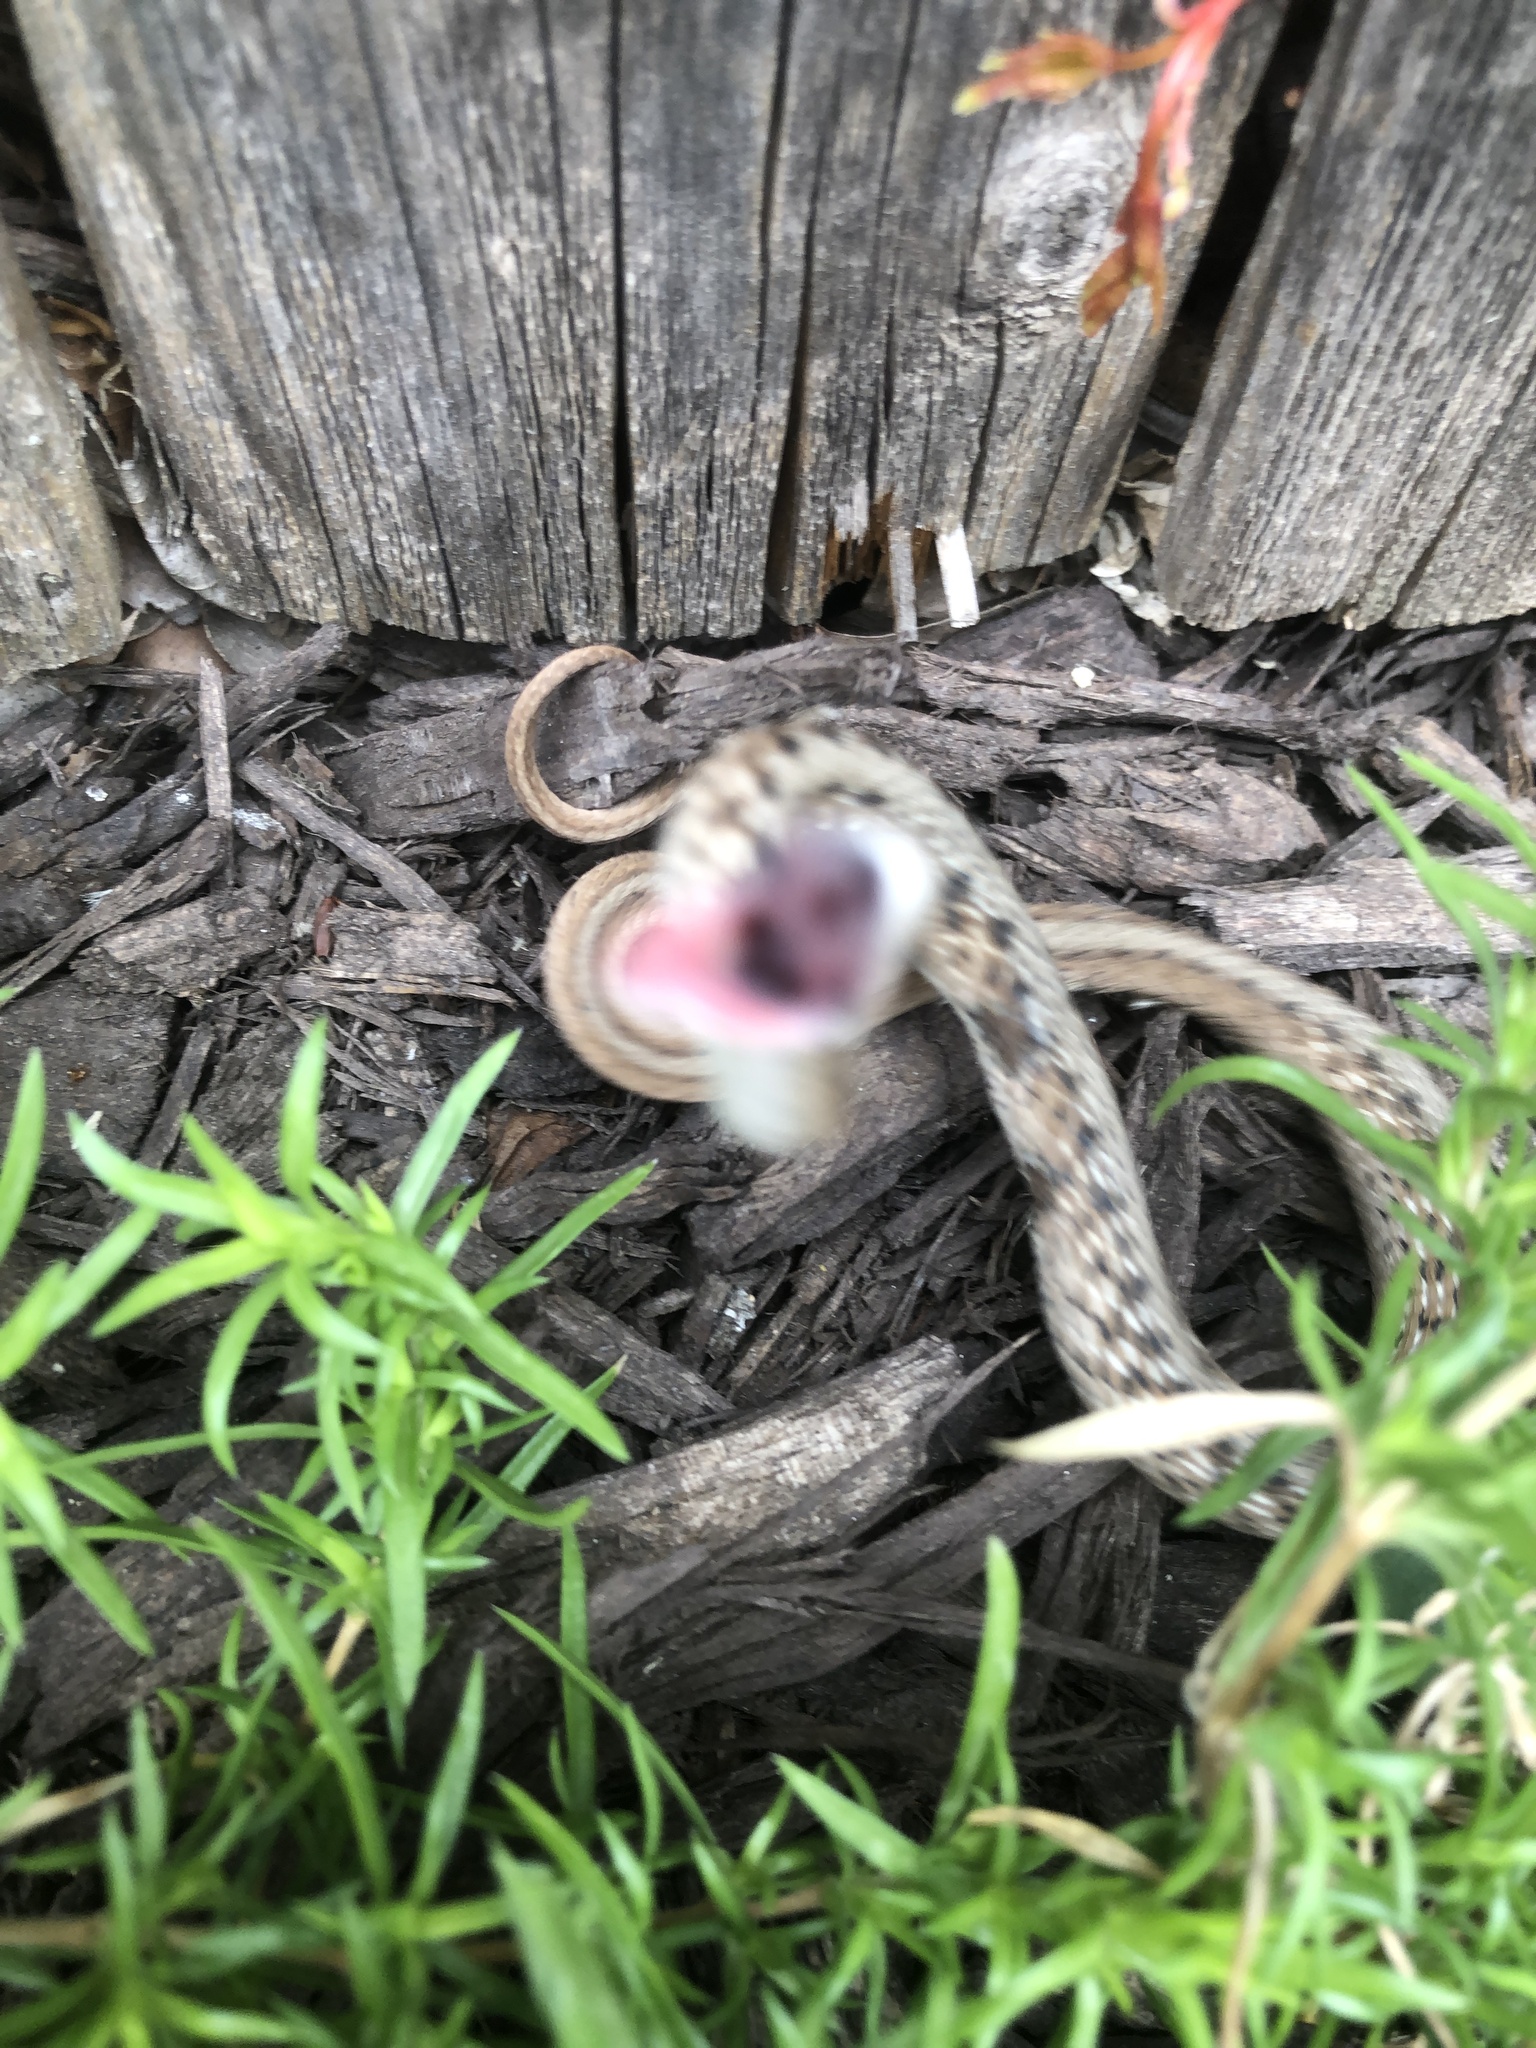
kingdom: Animalia
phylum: Chordata
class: Squamata
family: Colubridae
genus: Storeria
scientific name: Storeria dekayi
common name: (dekay’s) brown snake
